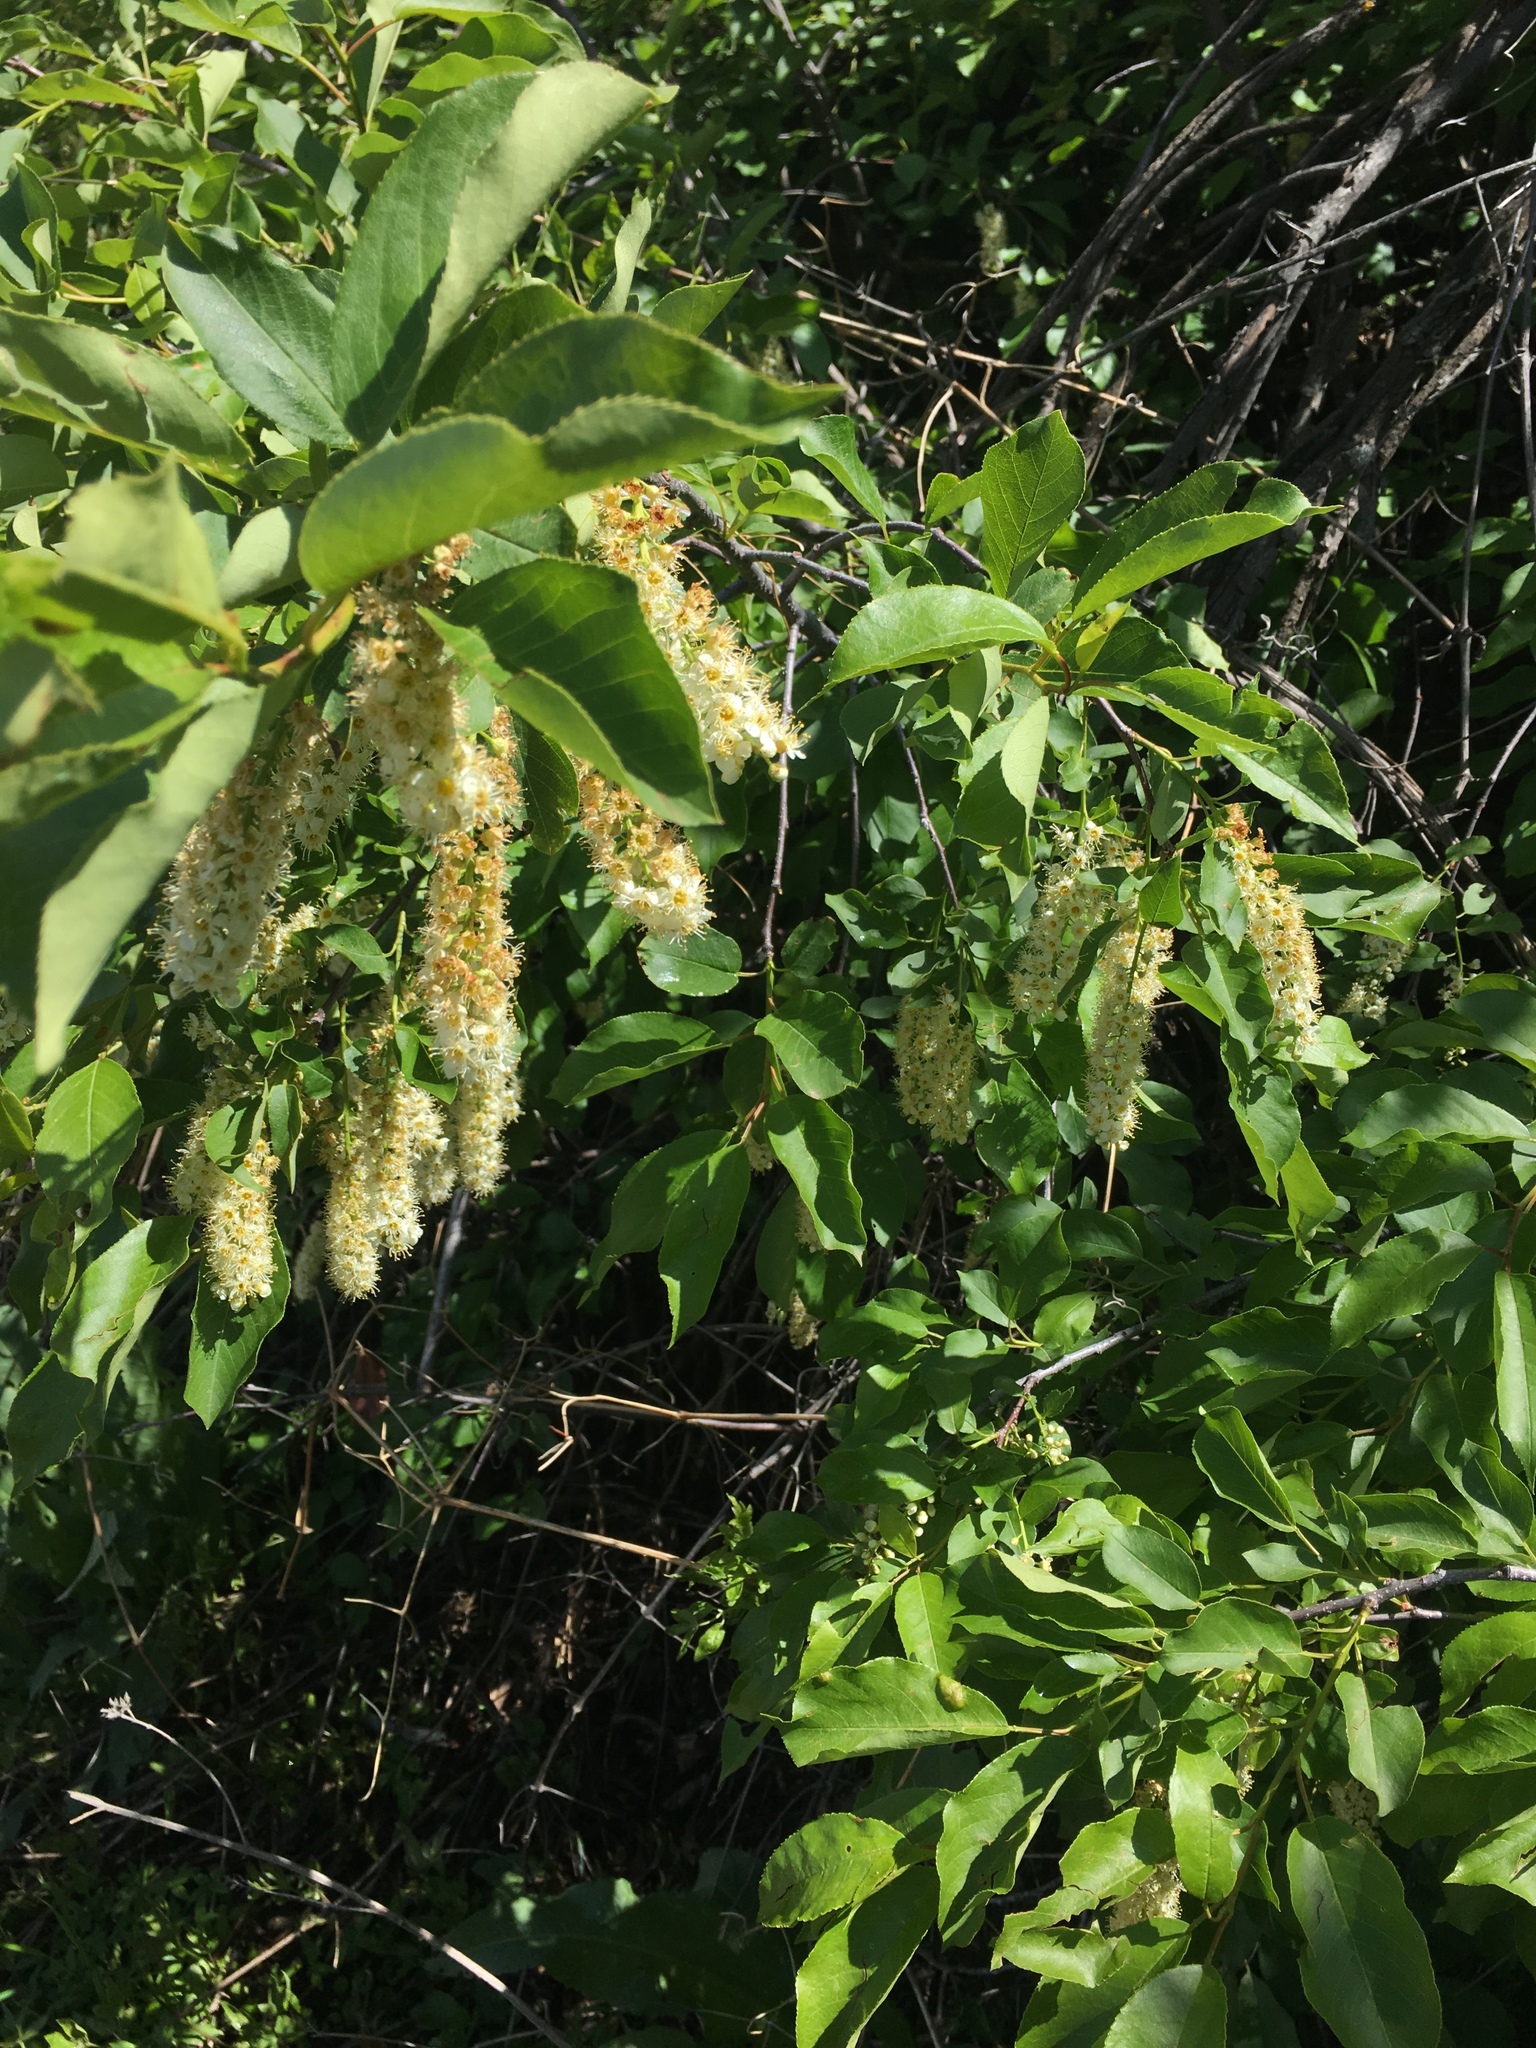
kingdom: Plantae
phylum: Tracheophyta
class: Magnoliopsida
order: Rosales
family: Rosaceae
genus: Prunus
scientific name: Prunus virginiana
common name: Chokecherry
